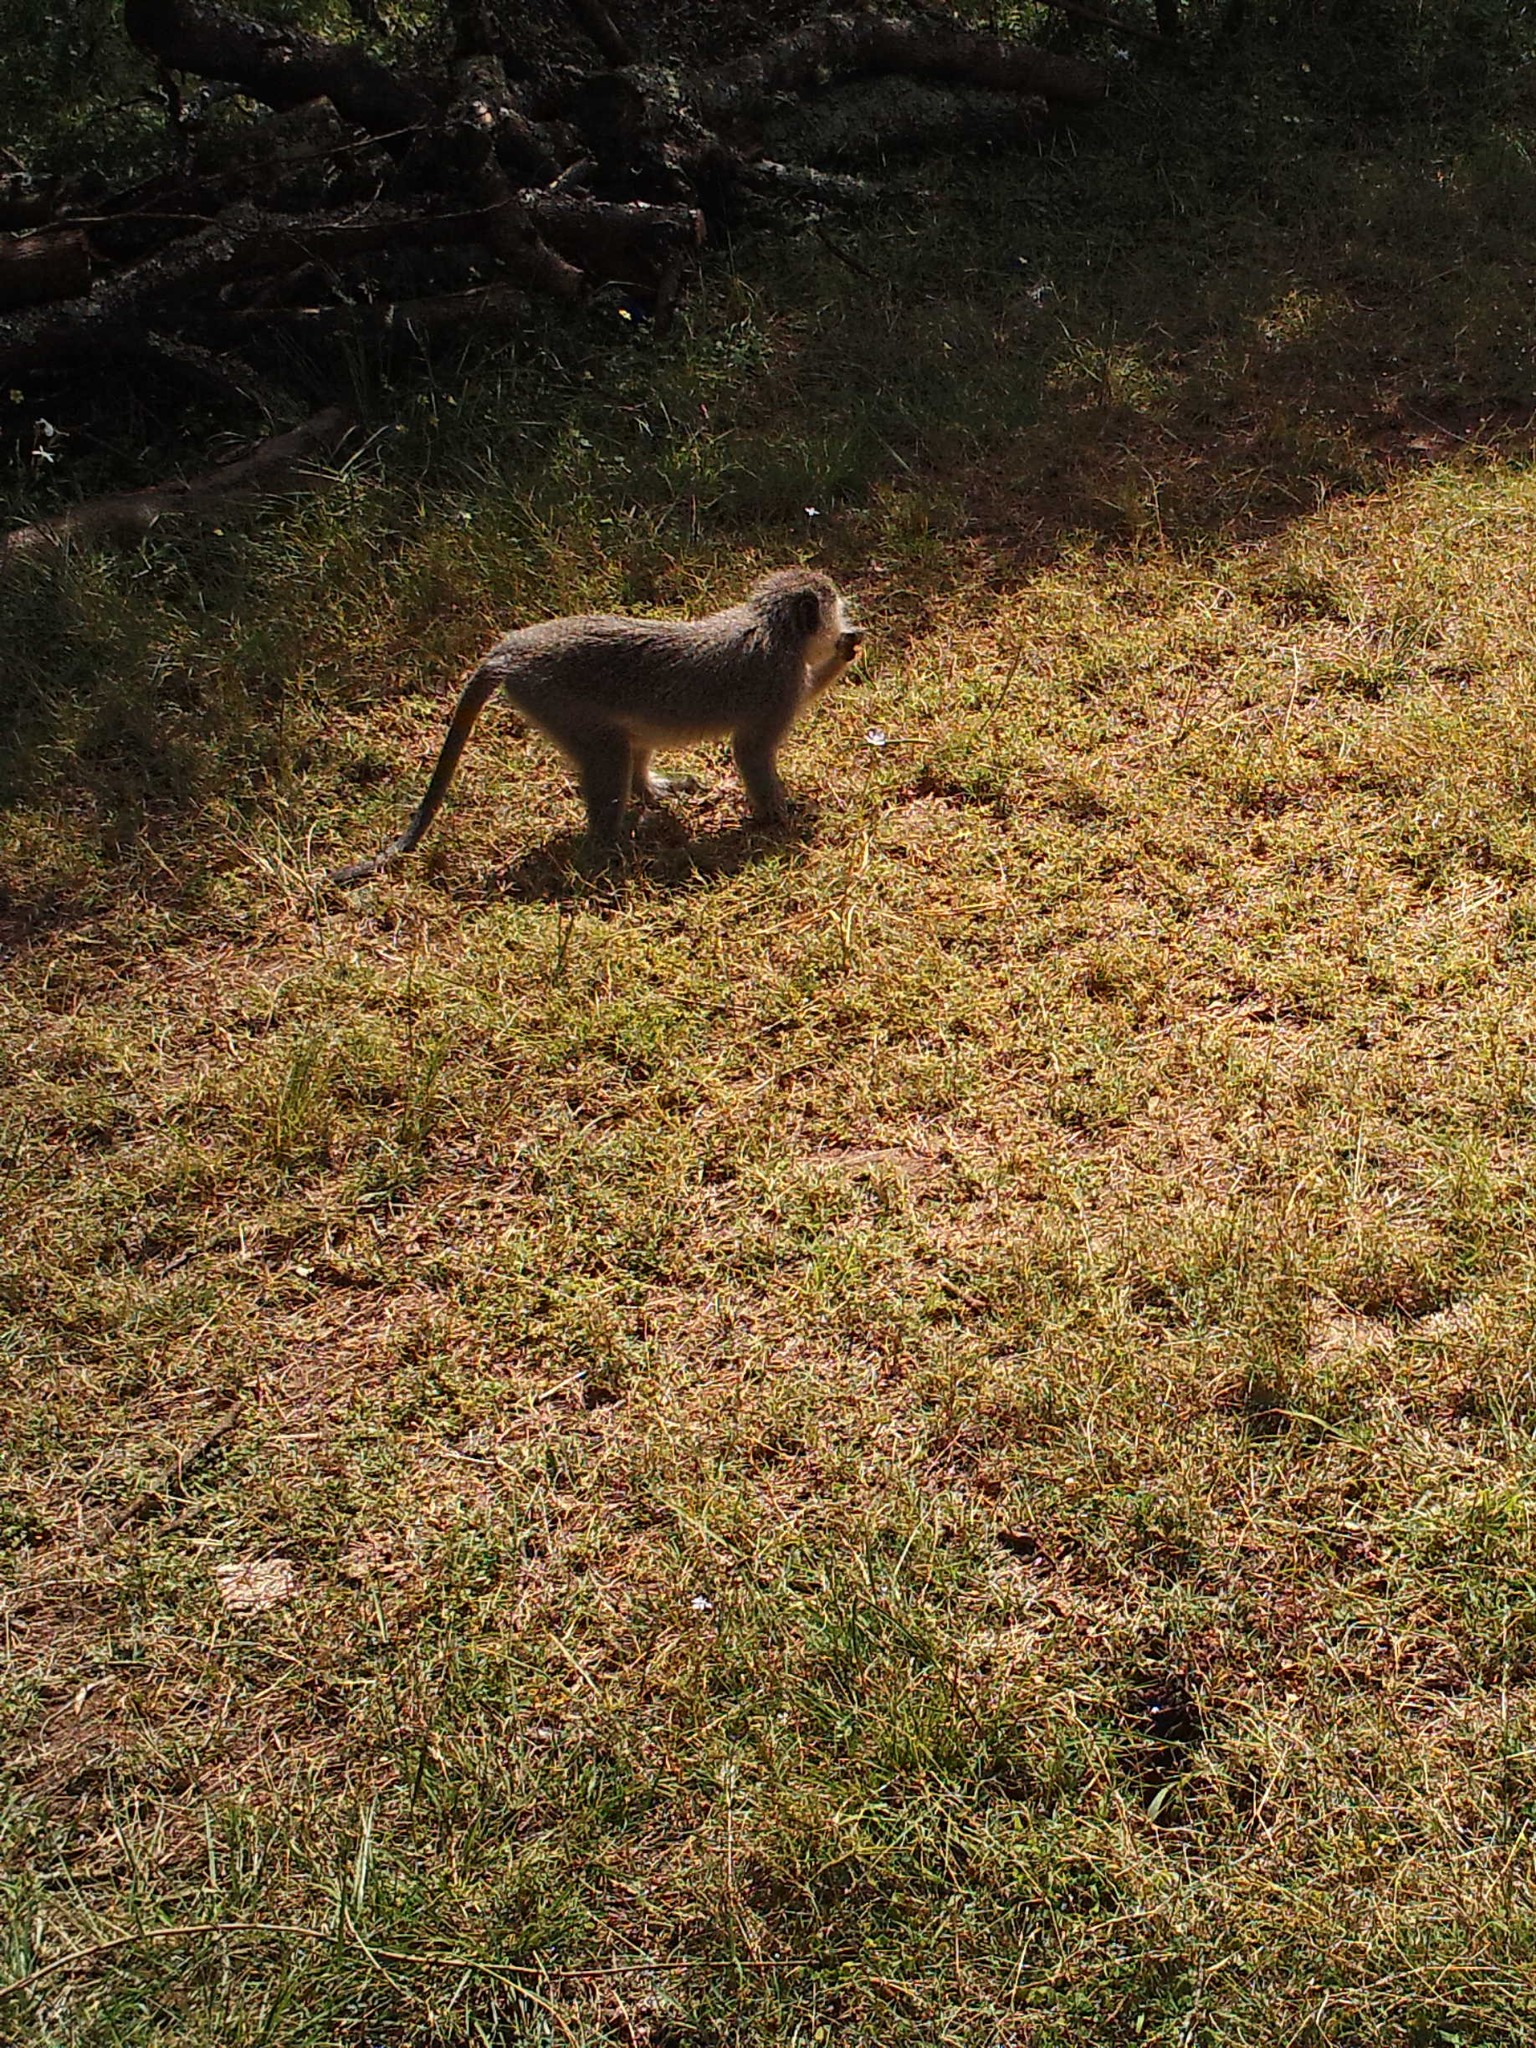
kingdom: Animalia
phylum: Chordata
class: Mammalia
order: Primates
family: Cercopithecidae
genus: Chlorocebus
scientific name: Chlorocebus pygerythrus
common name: Vervet monkey
